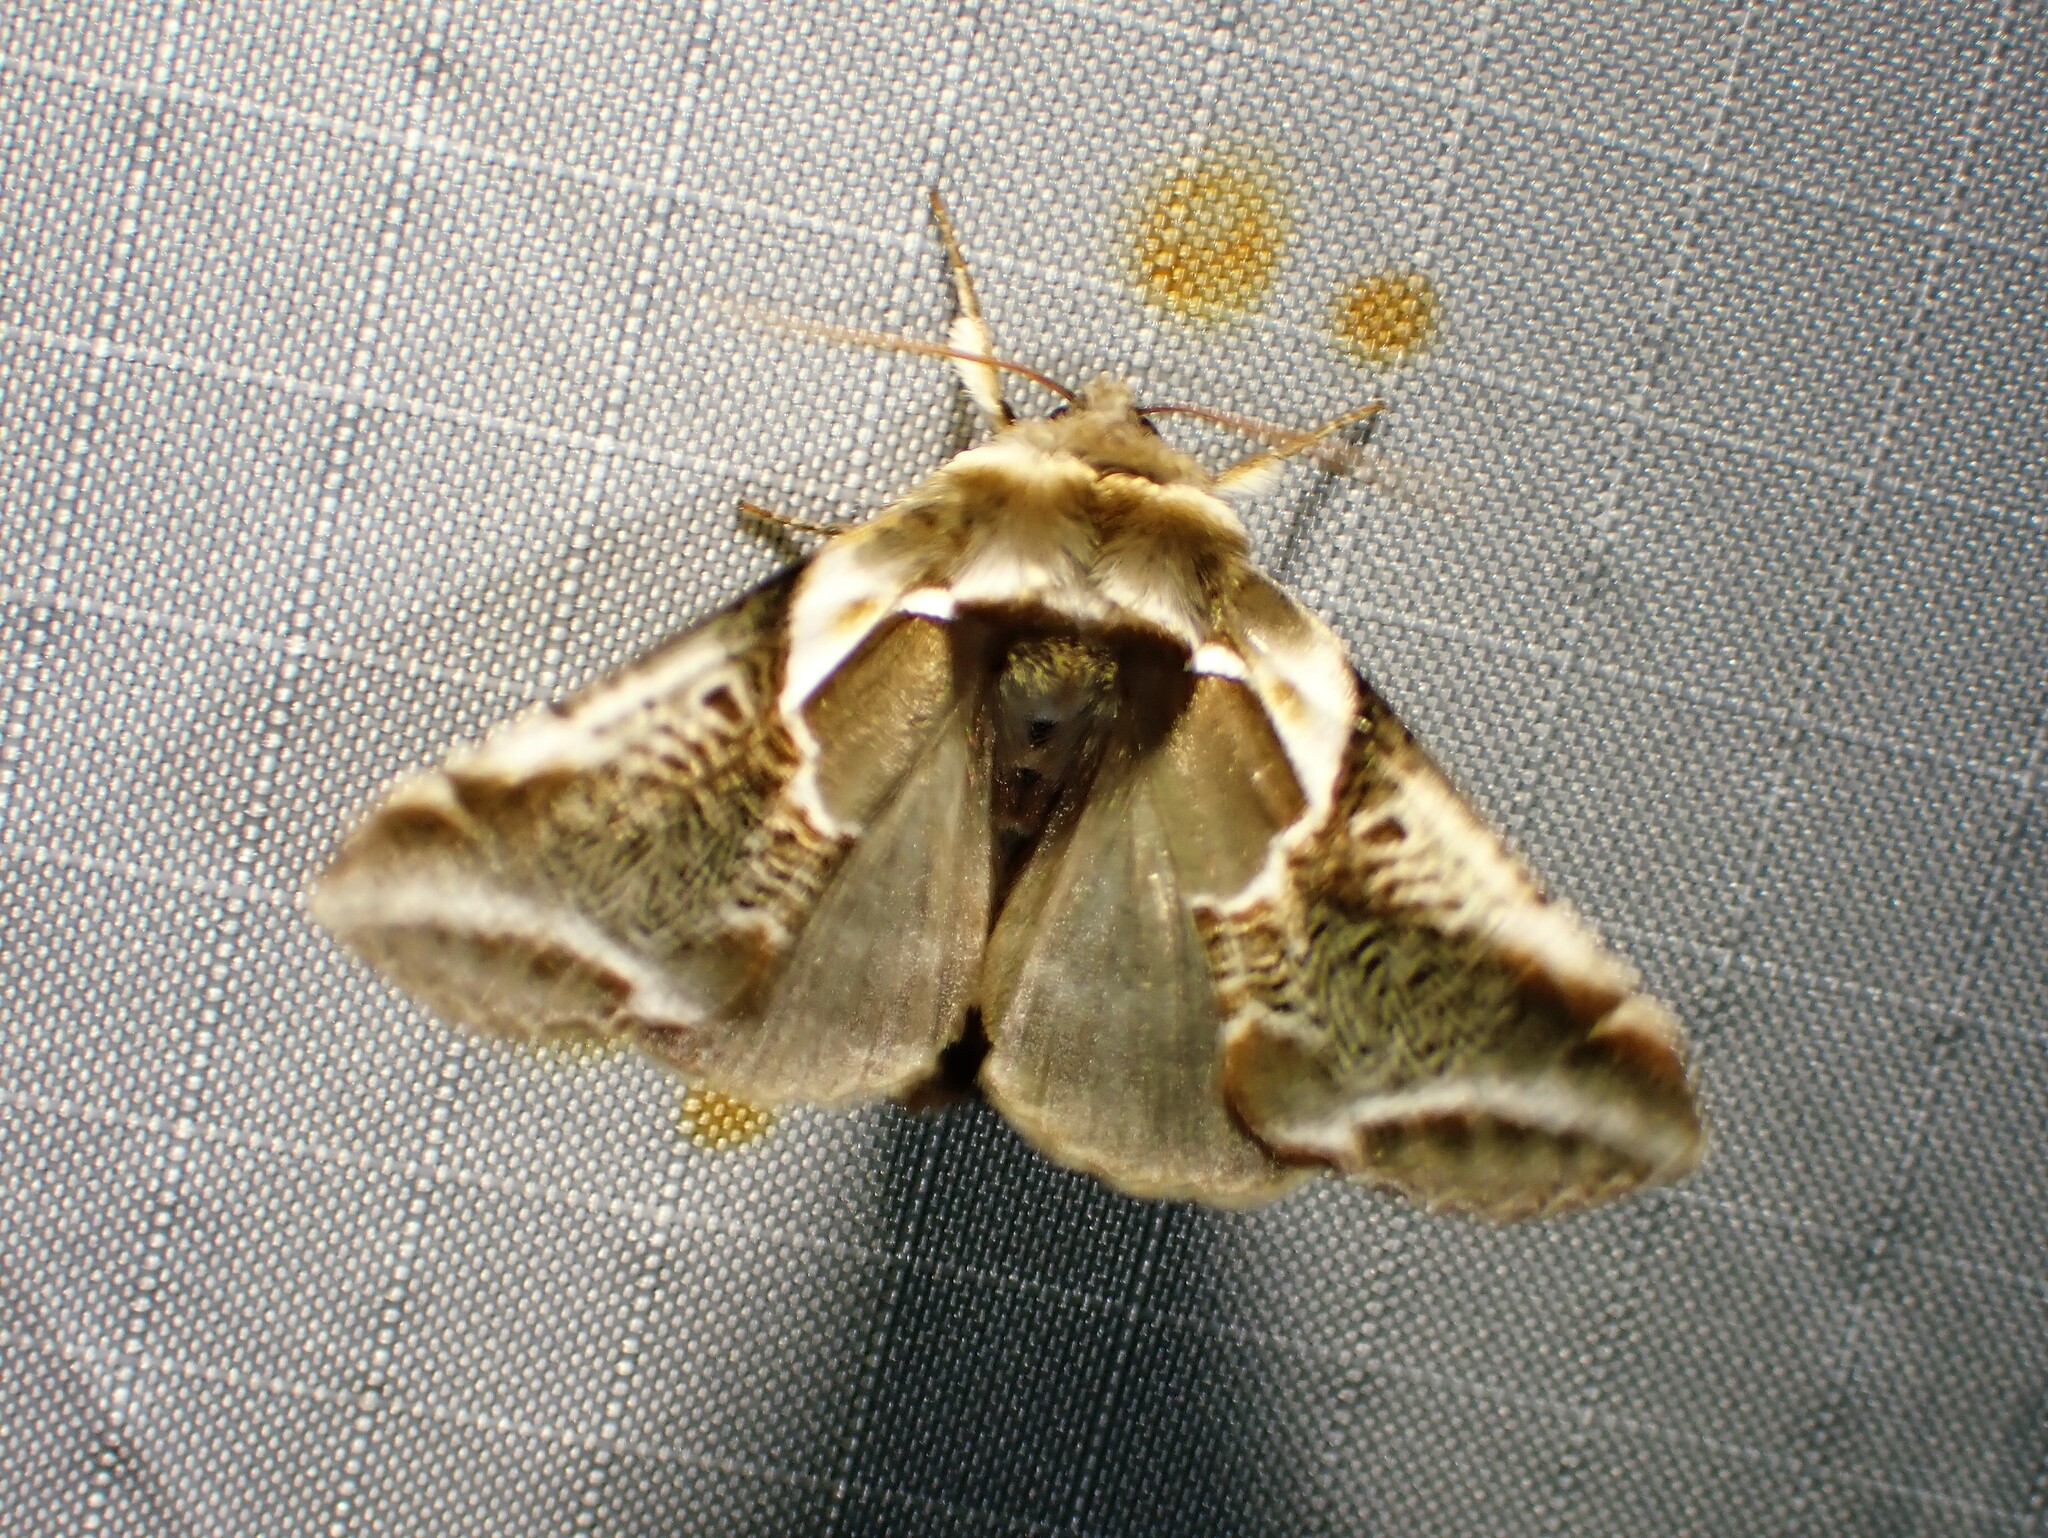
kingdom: Animalia
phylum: Arthropoda
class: Insecta
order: Lepidoptera
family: Drepanidae
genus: Habrosyne
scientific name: Habrosyne scripta
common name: Lettered habrosyne moth
